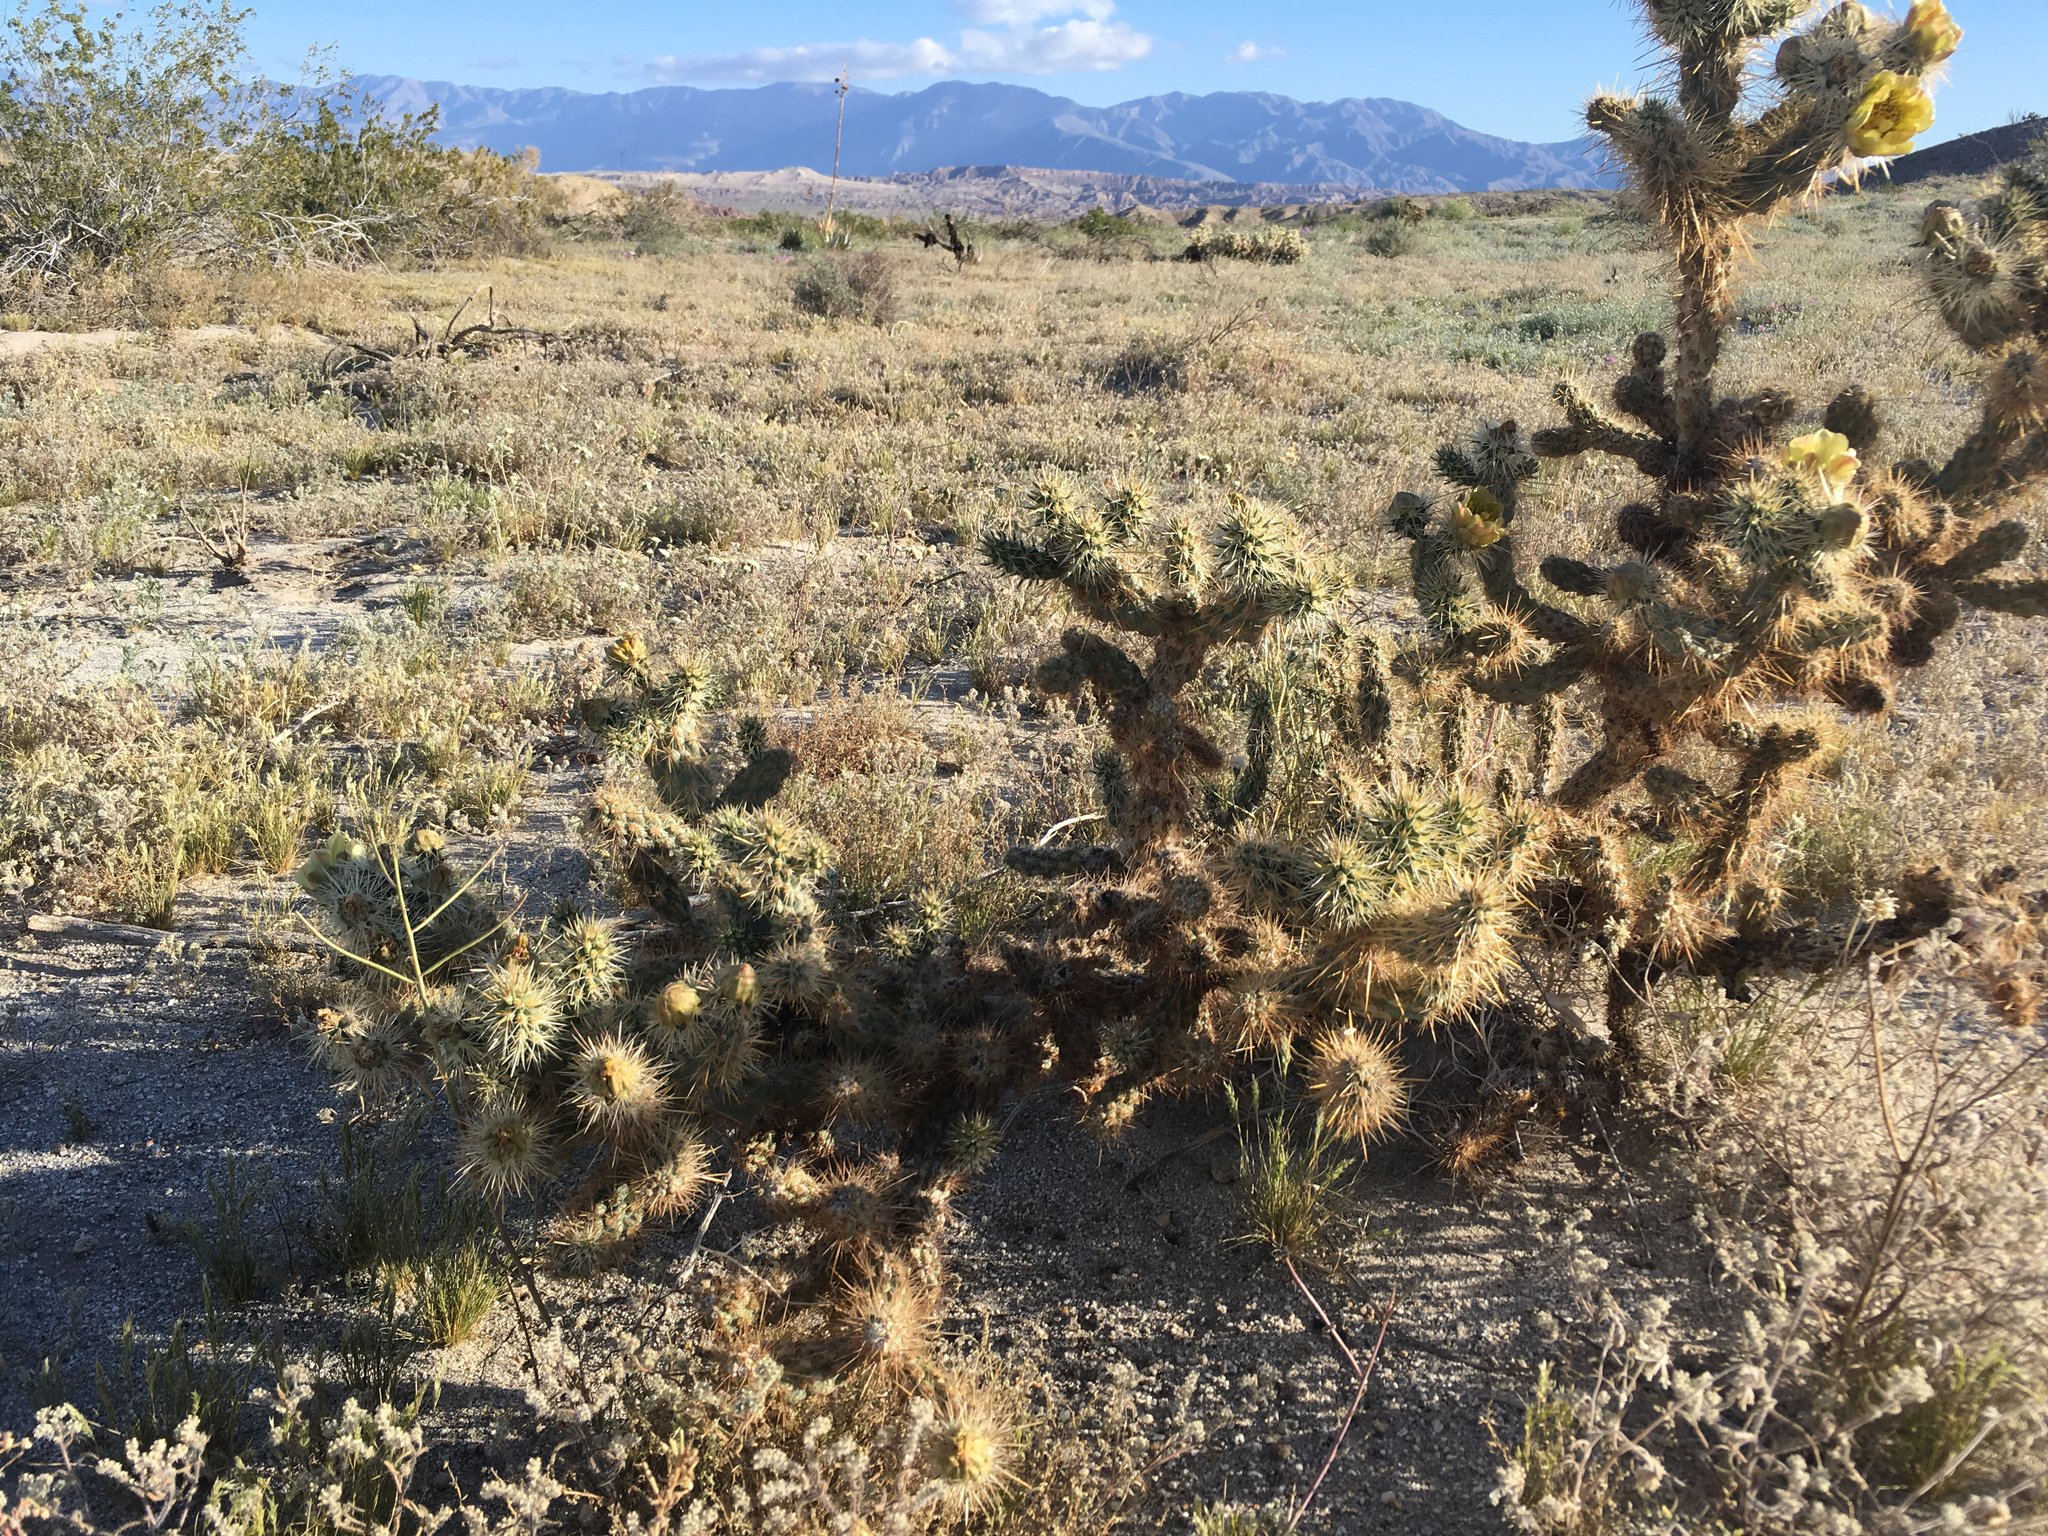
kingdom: Plantae
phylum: Tracheophyta
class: Magnoliopsida
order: Caryophyllales
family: Cactaceae
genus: Cylindropuntia
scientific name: Cylindropuntia echinocarpa
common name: Ground cholla
